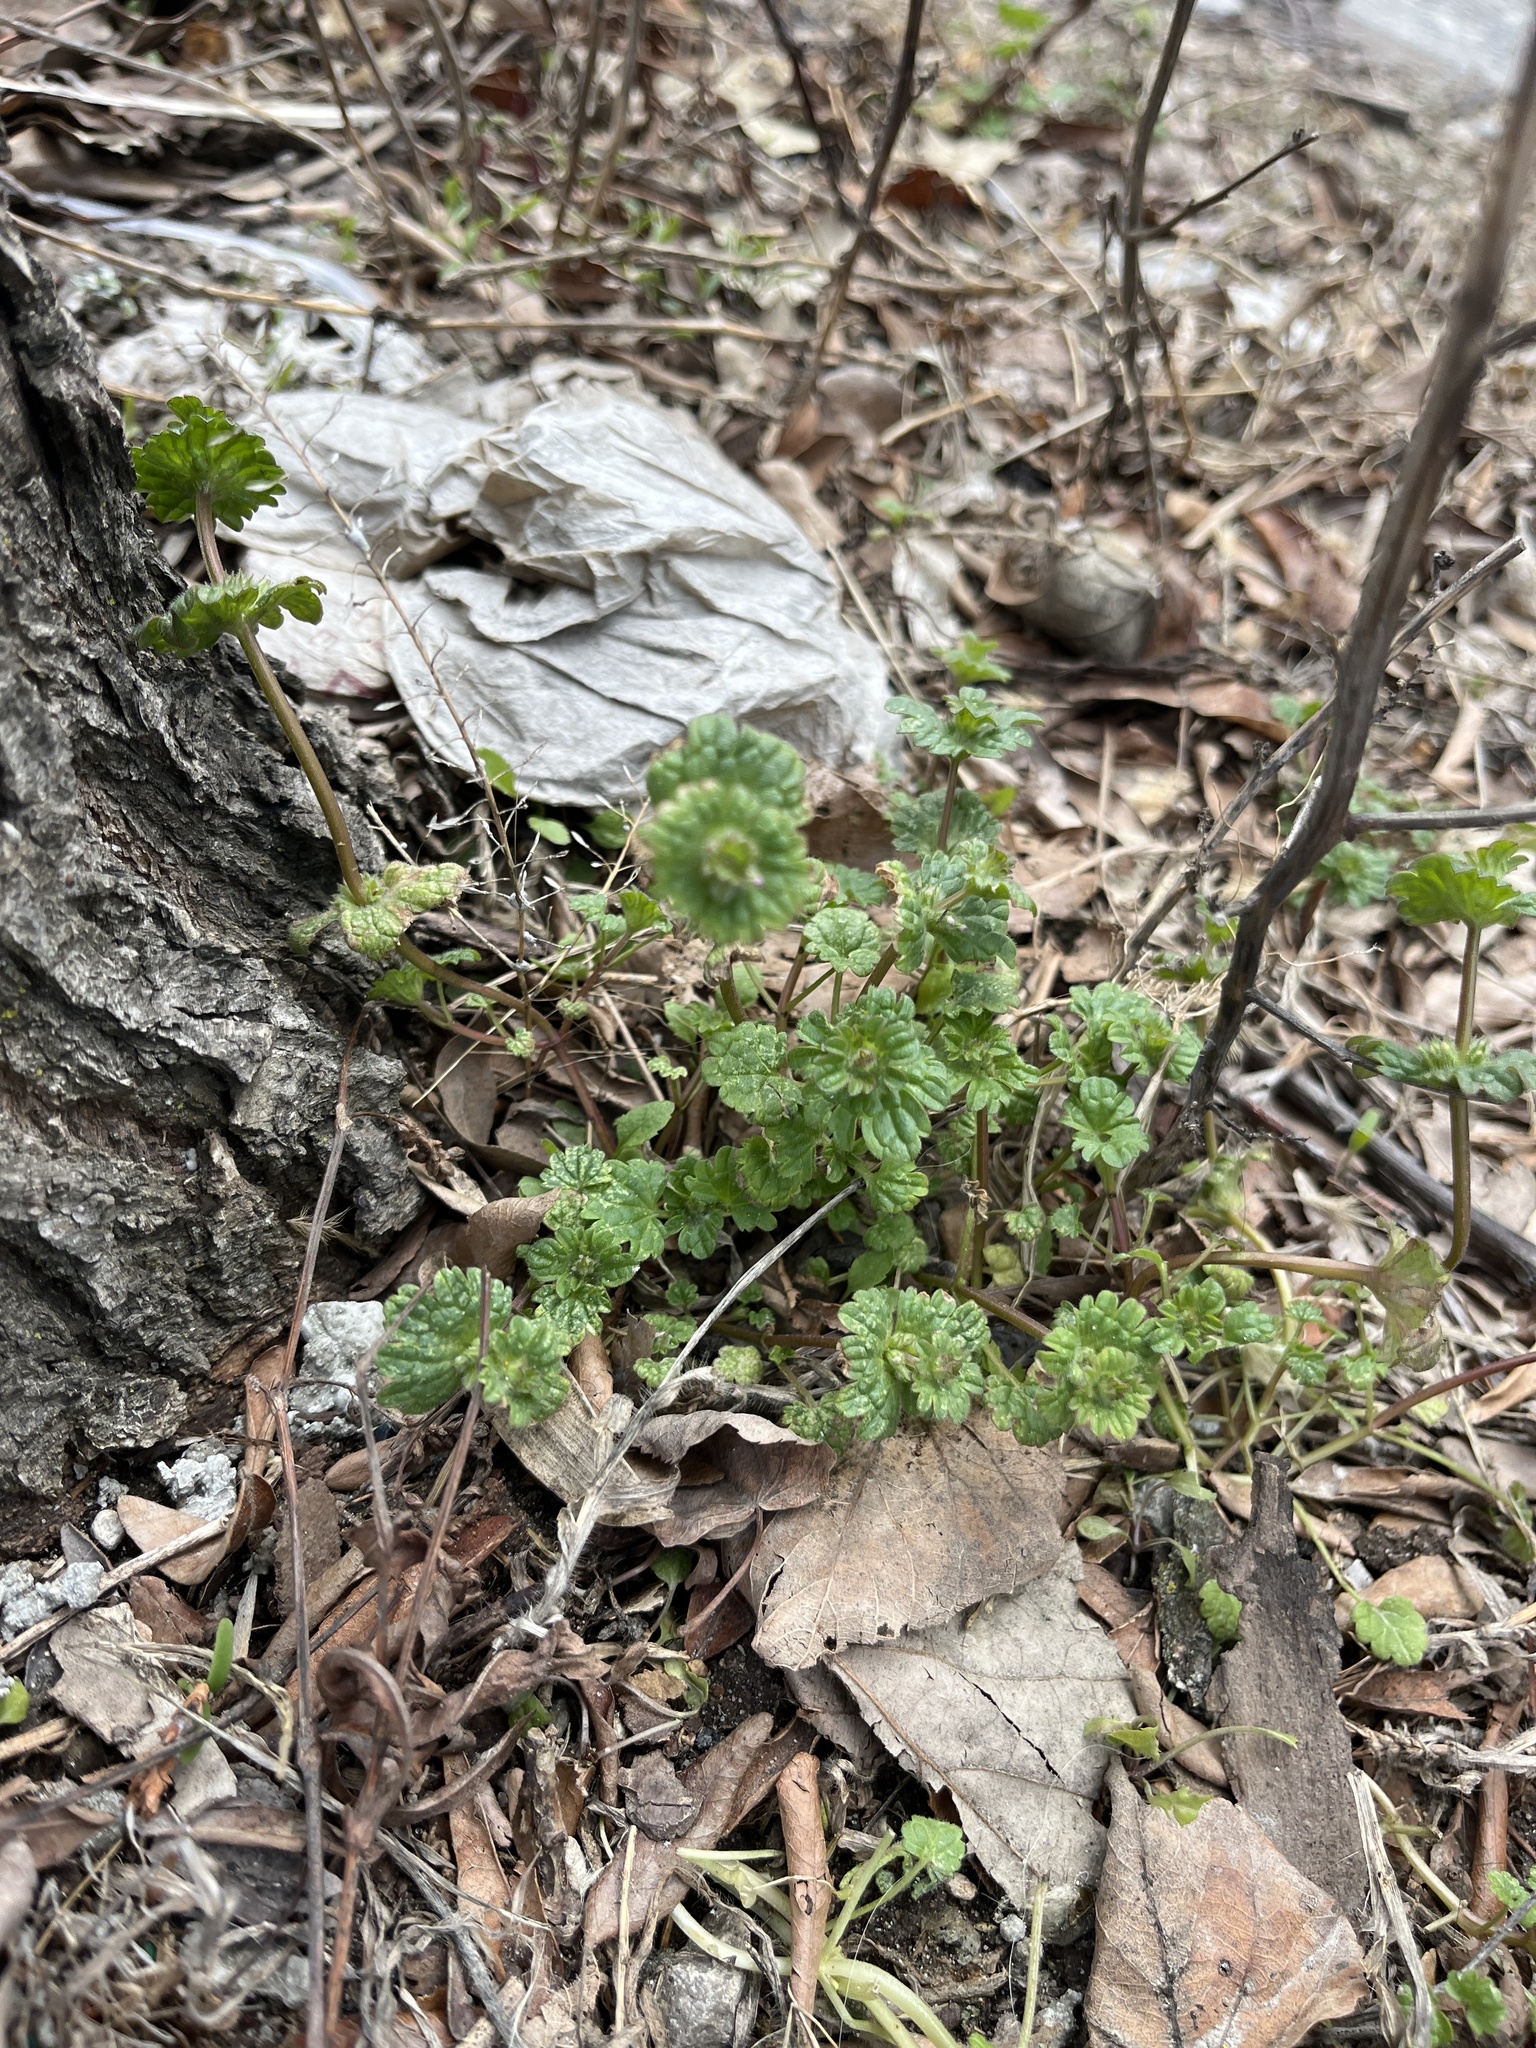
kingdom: Plantae
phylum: Tracheophyta
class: Magnoliopsida
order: Lamiales
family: Lamiaceae
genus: Lamium
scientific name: Lamium amplexicaule
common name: Henbit dead-nettle
